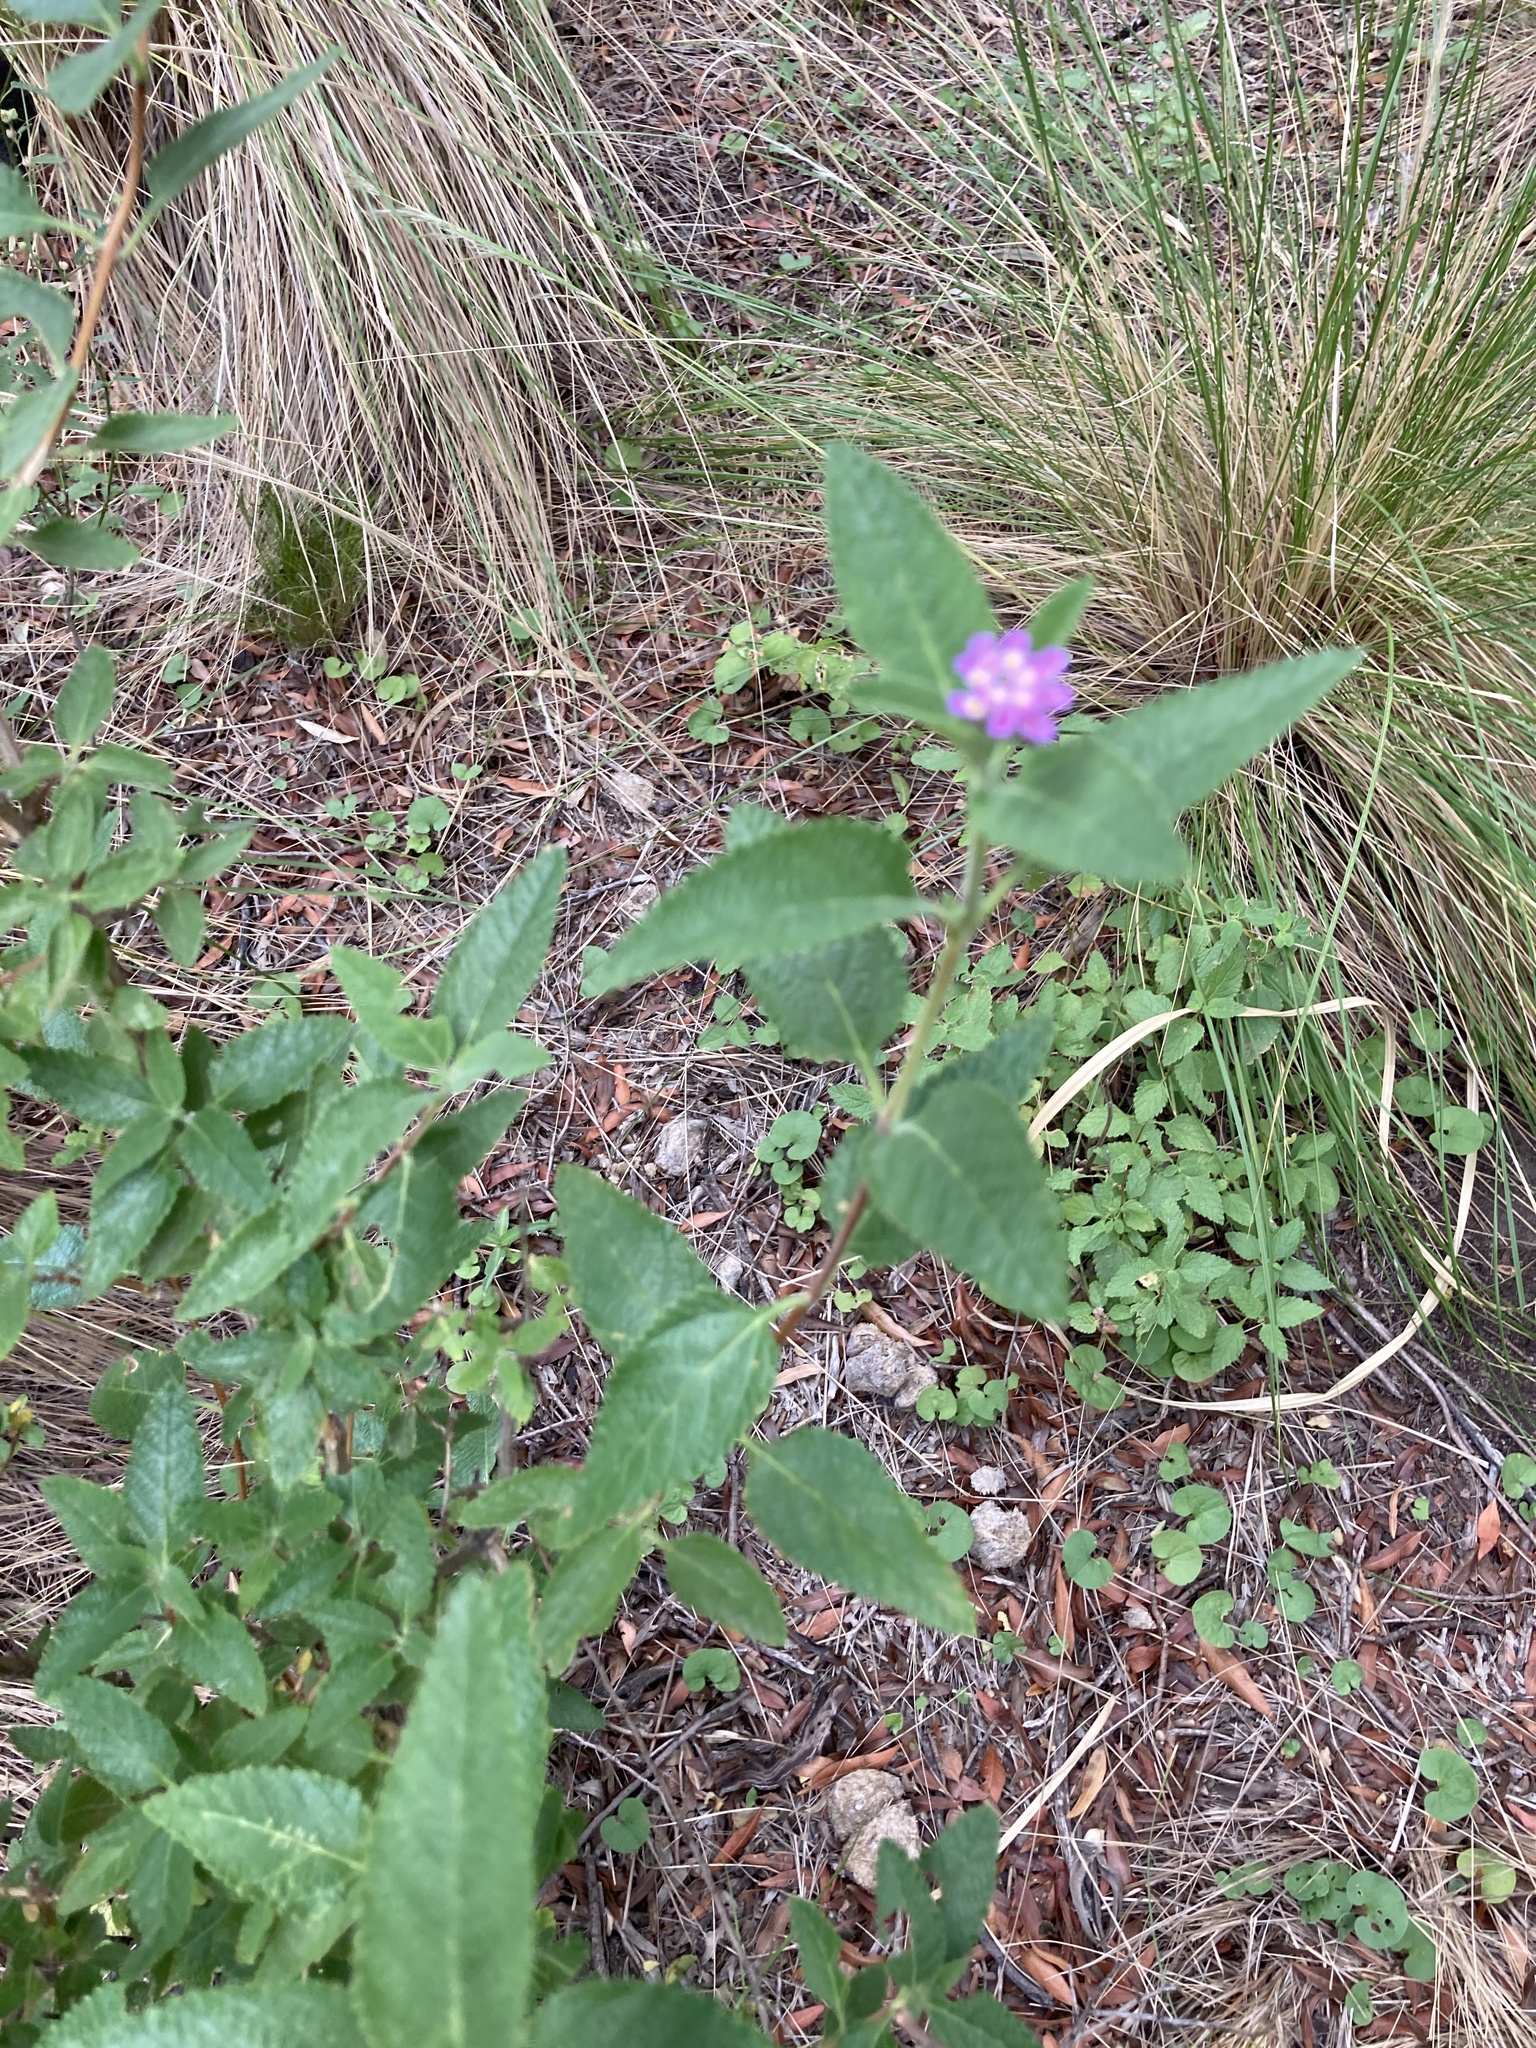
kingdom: Plantae
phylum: Tracheophyta
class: Magnoliopsida
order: Lamiales
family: Verbenaceae
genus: Lippia
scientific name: Lippia junelliana
